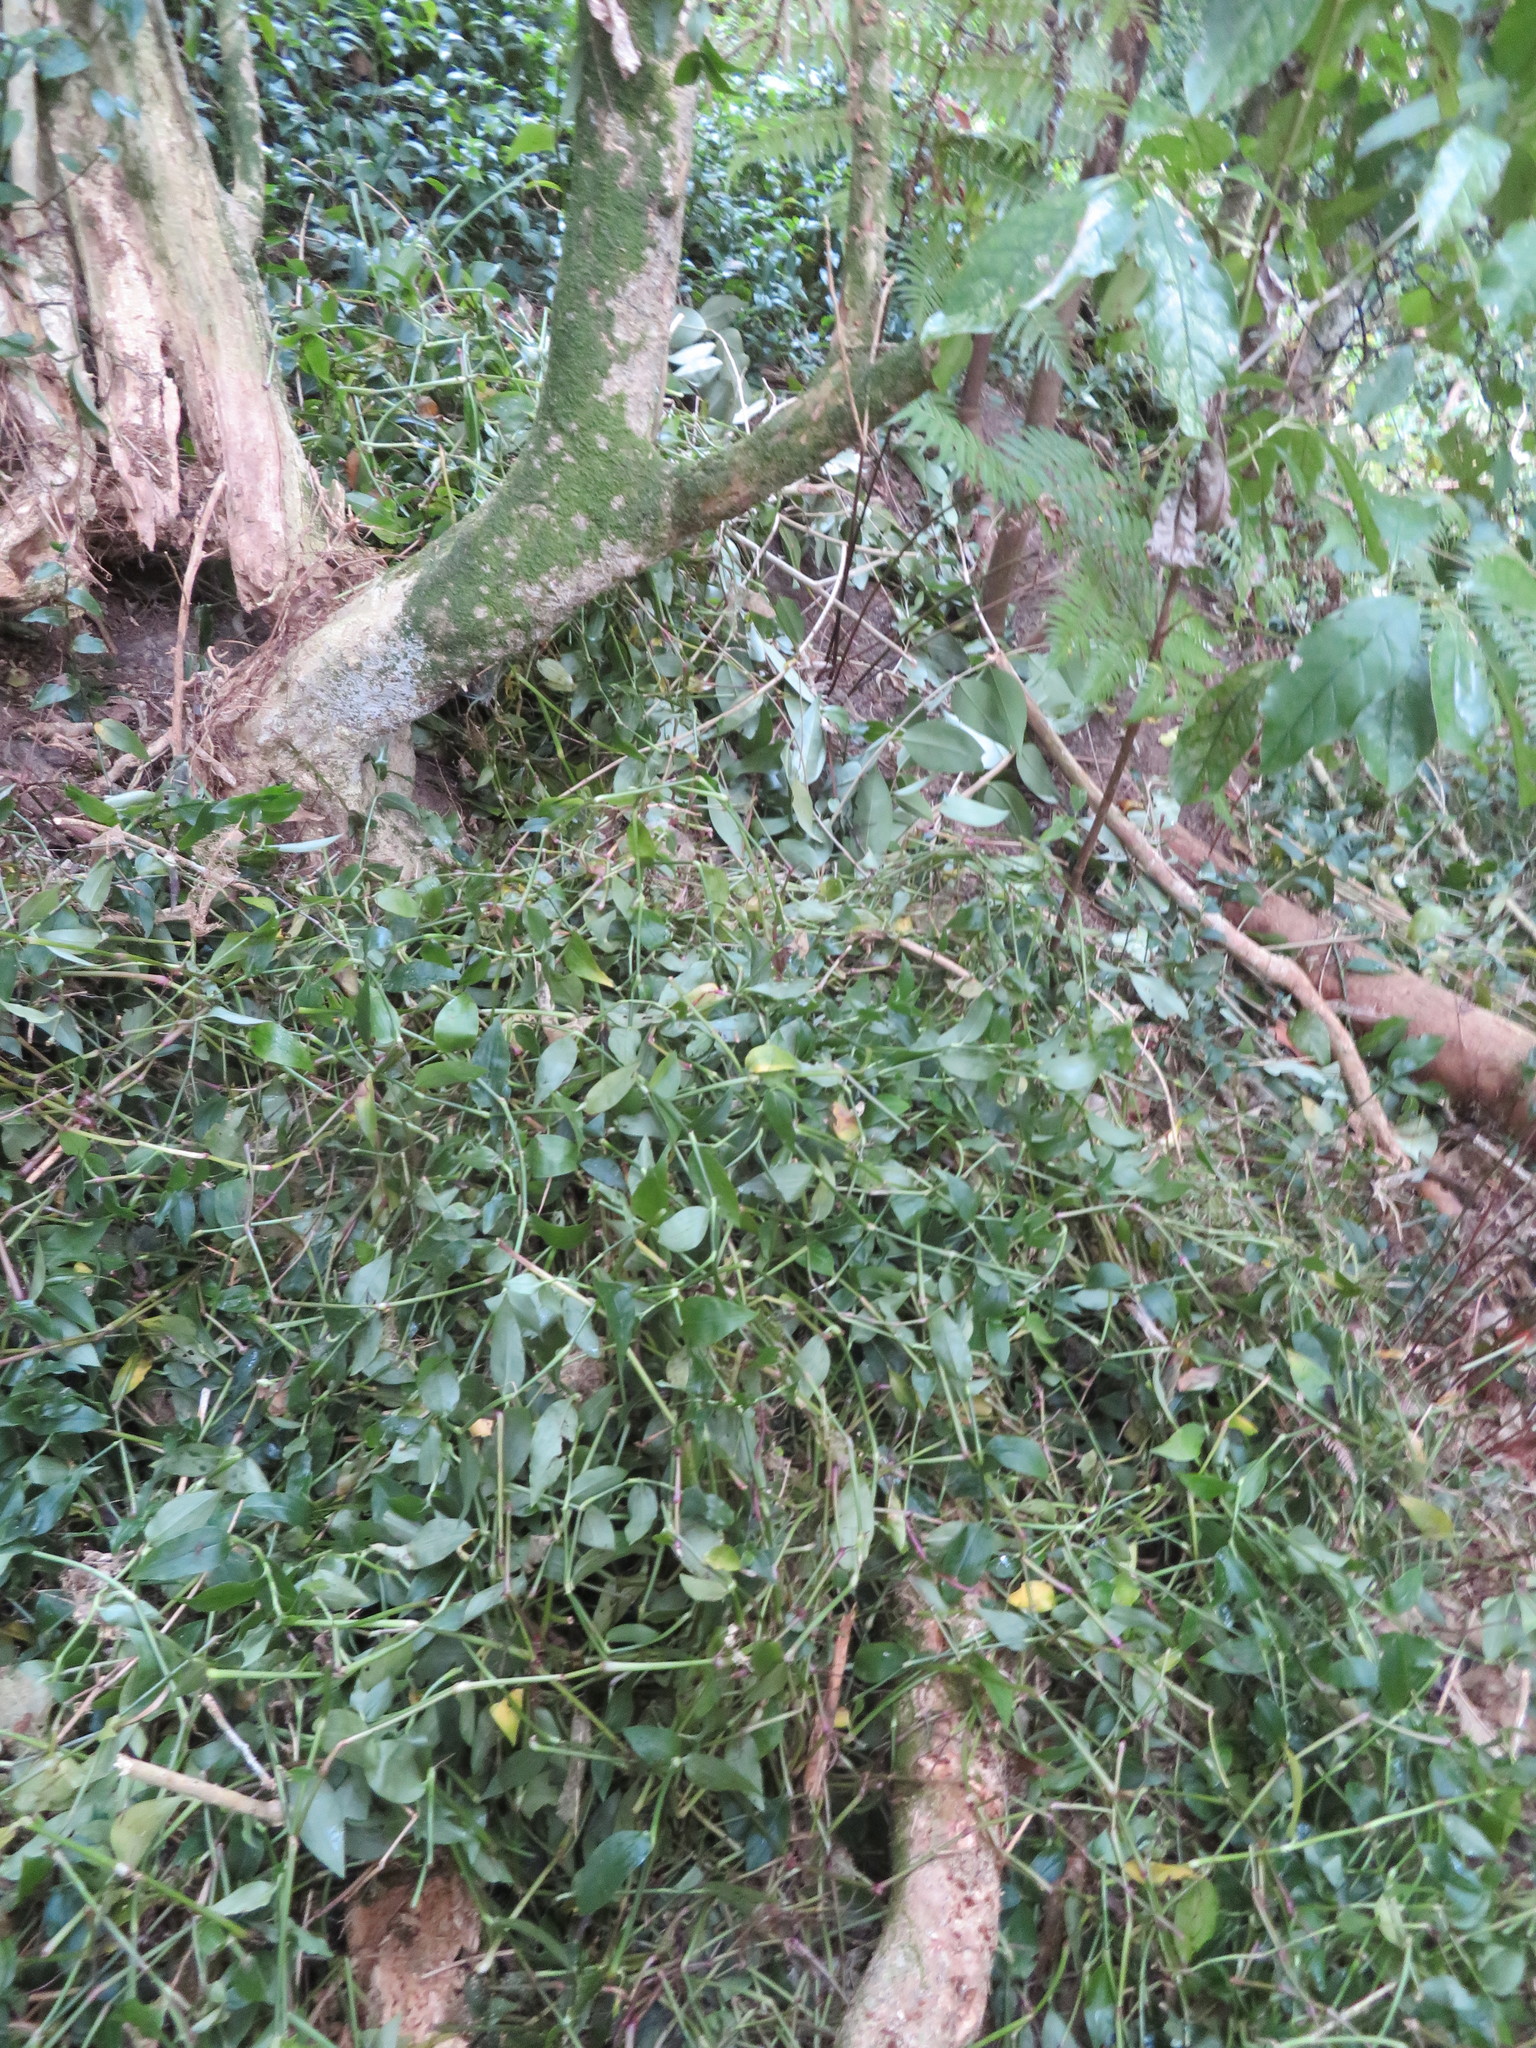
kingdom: Plantae
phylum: Tracheophyta
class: Liliopsida
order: Commelinales
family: Commelinaceae
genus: Tradescantia
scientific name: Tradescantia fluminensis
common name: Wandering-jew
